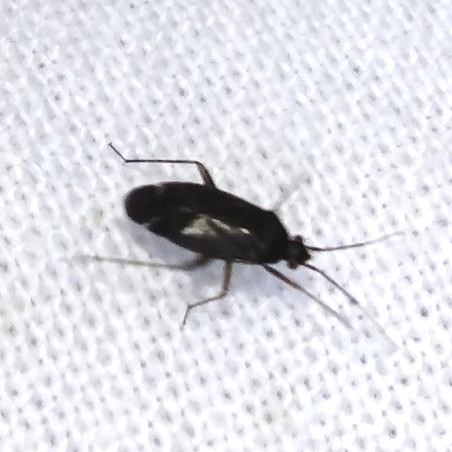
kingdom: Animalia
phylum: Arthropoda
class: Insecta
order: Hemiptera
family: Miridae
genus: Plagiognathus
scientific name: Plagiognathus arbustorum
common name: Plant bug
